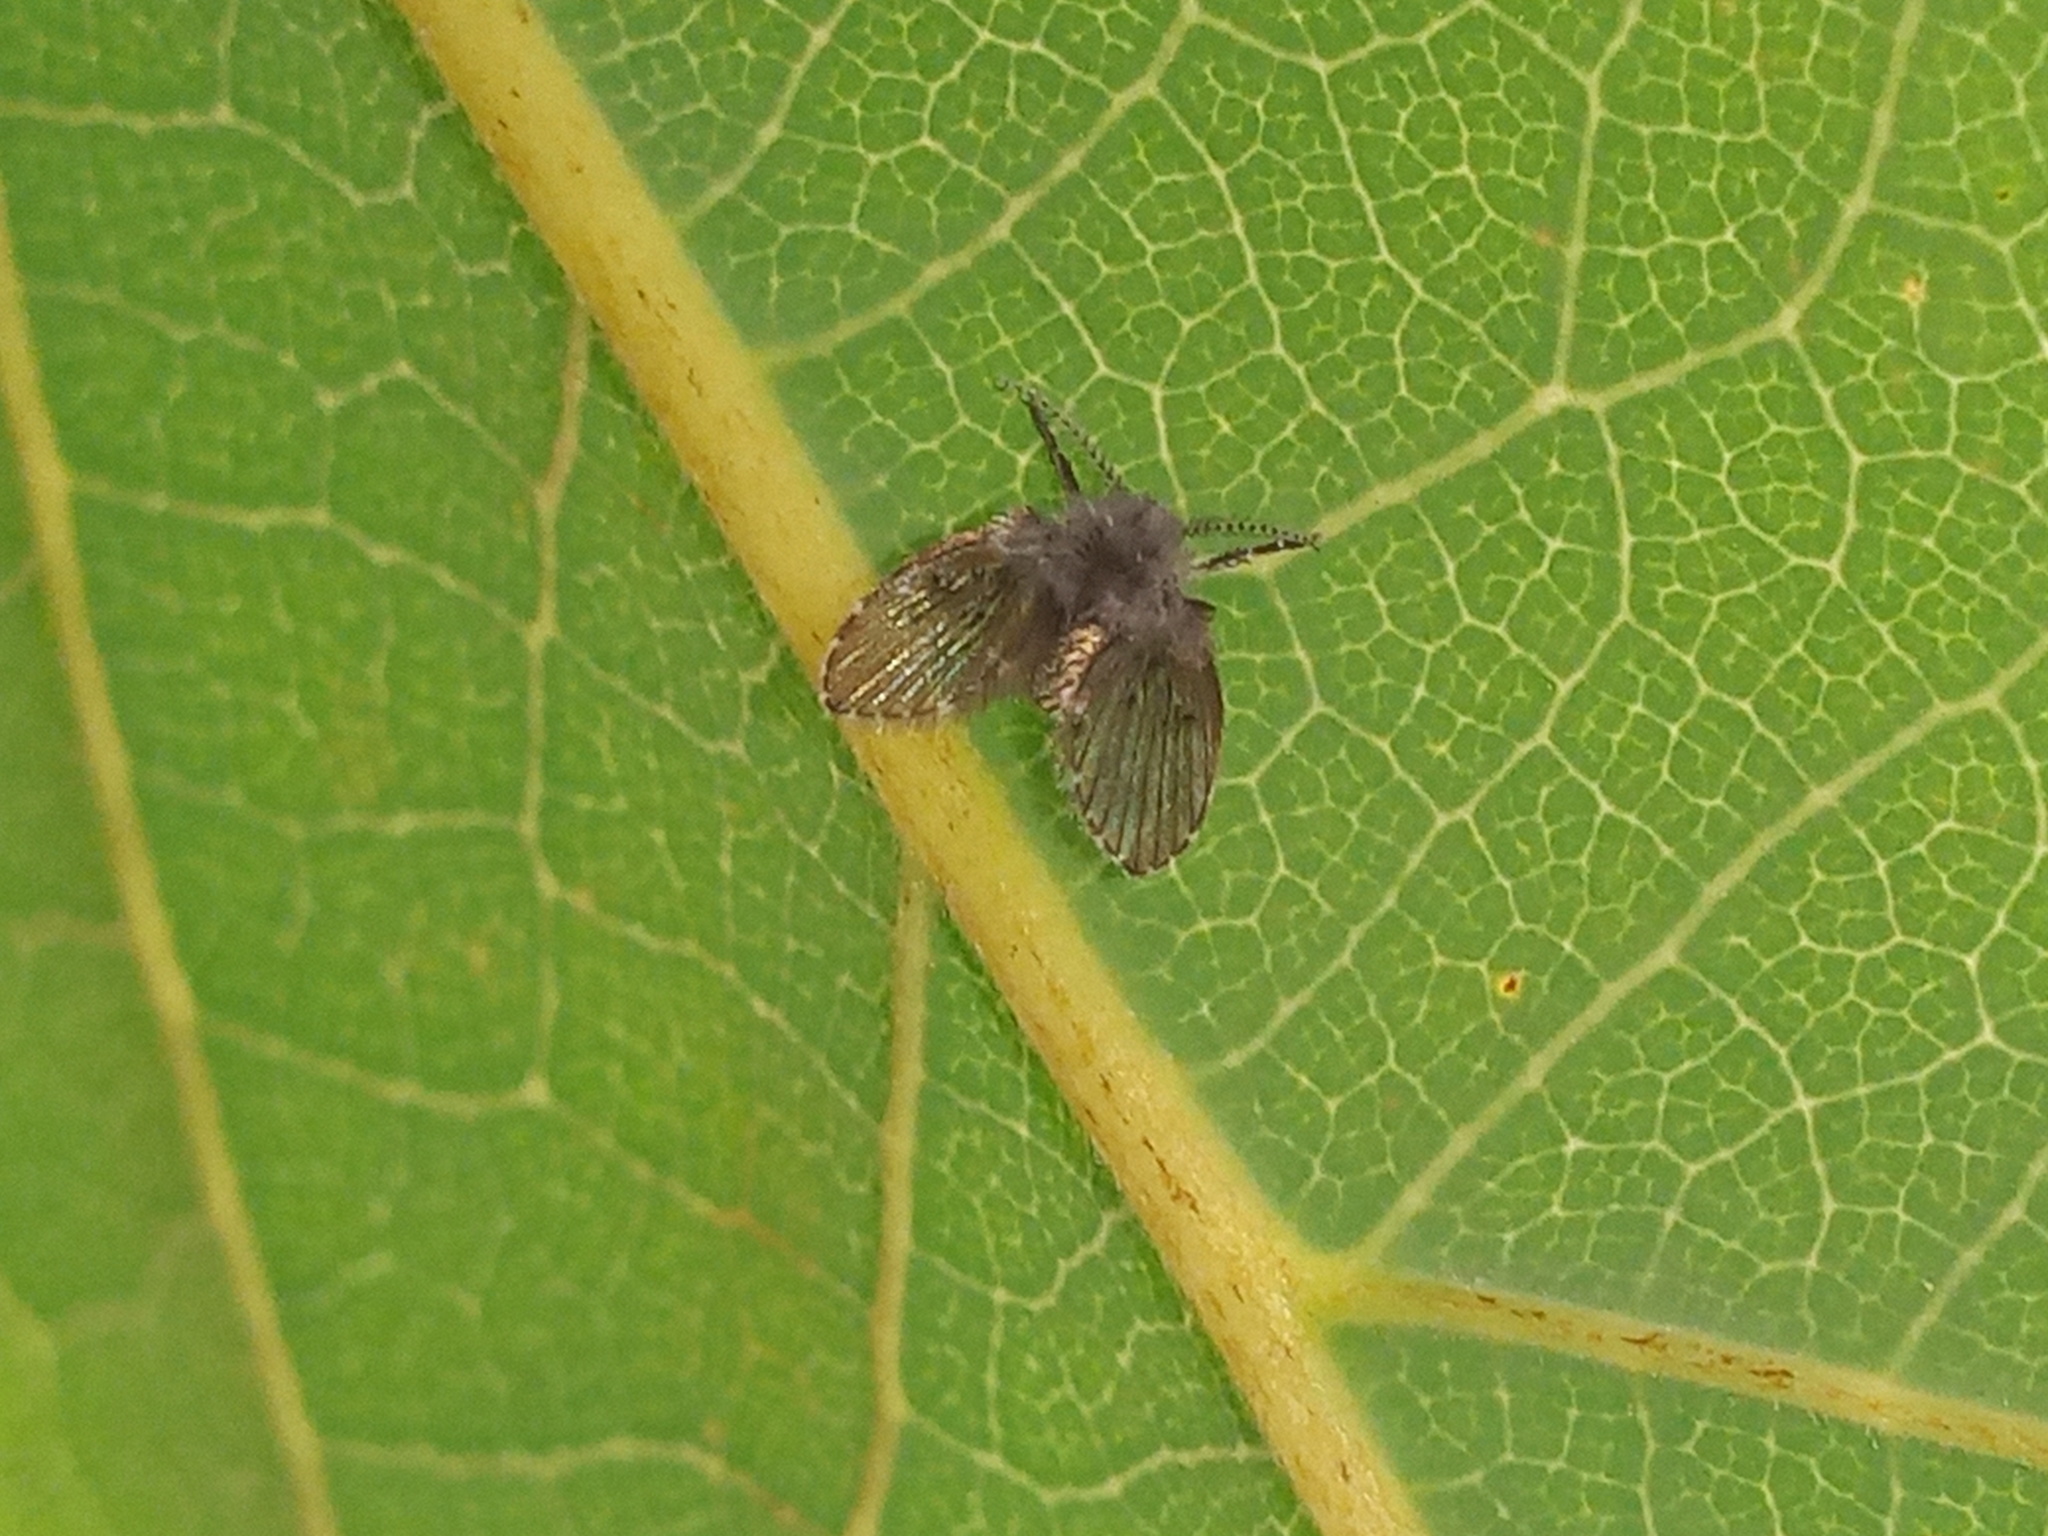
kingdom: Animalia
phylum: Arthropoda
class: Insecta
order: Diptera
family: Psychodidae
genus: Clogmia
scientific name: Clogmia albipunctatus
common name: White-spotted moth fly
